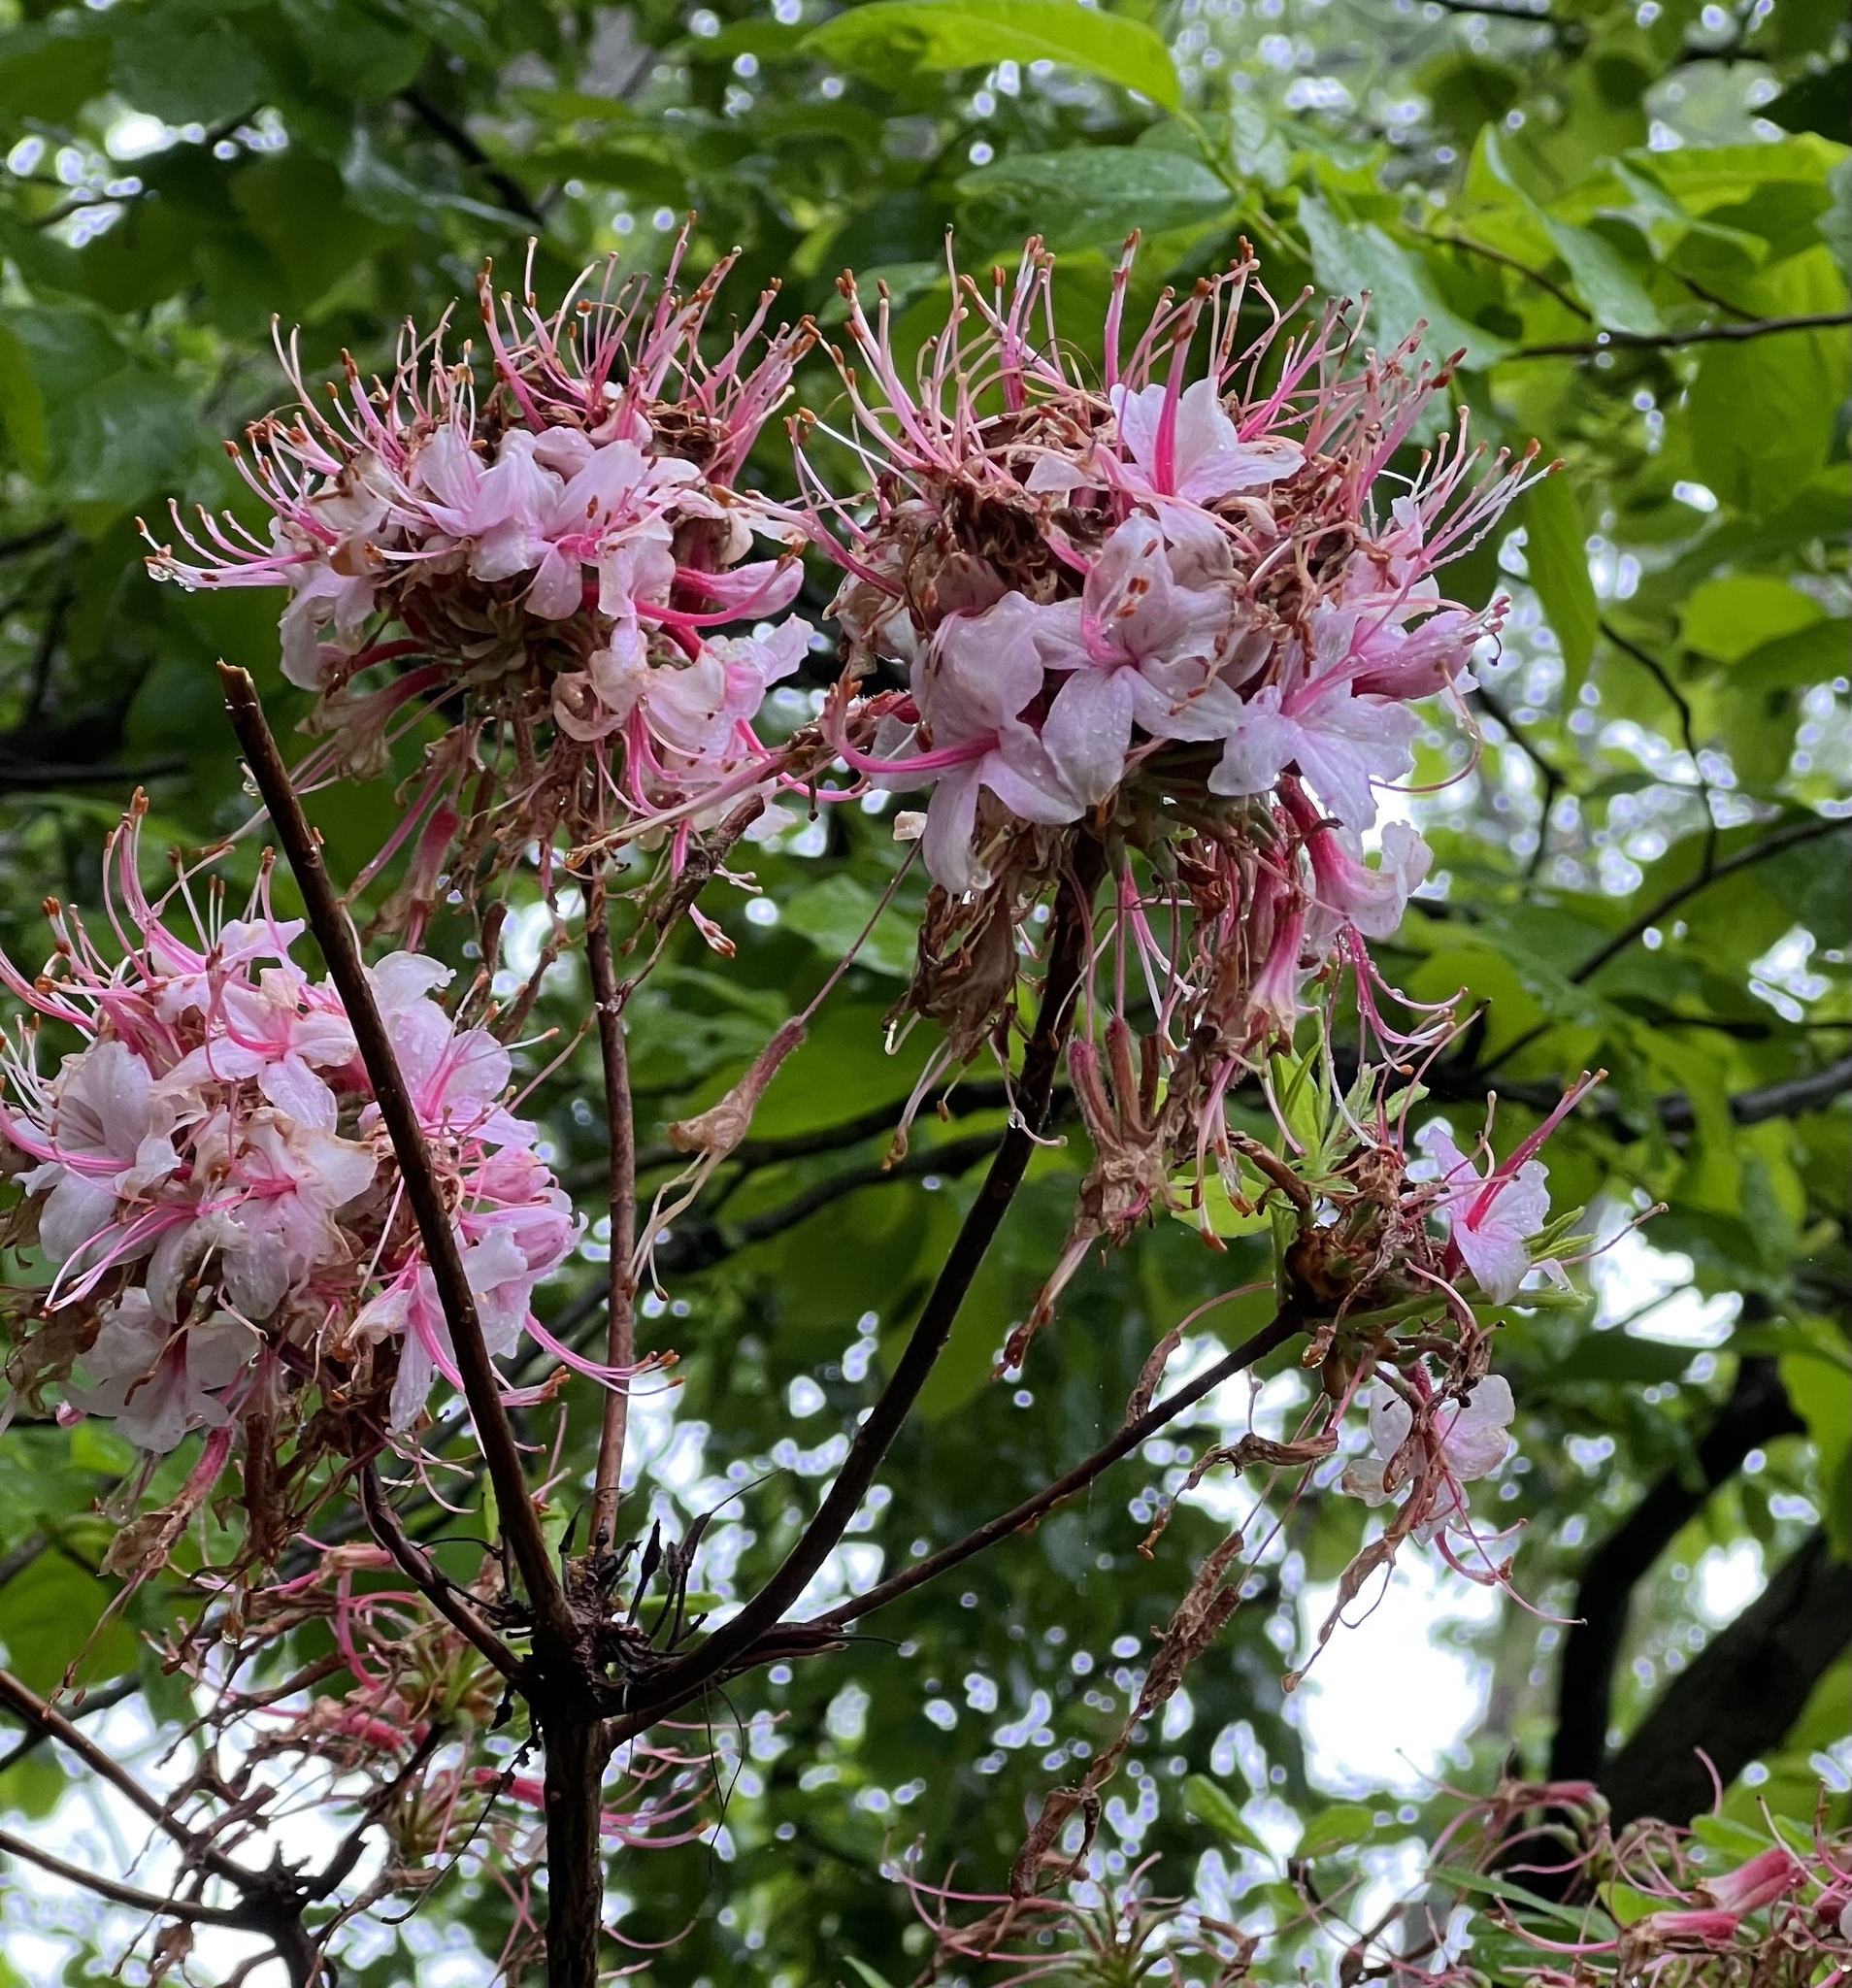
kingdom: Plantae
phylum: Tracheophyta
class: Magnoliopsida
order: Ericales
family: Ericaceae
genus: Rhododendron
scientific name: Rhododendron periclymenoides
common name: Election-pink
